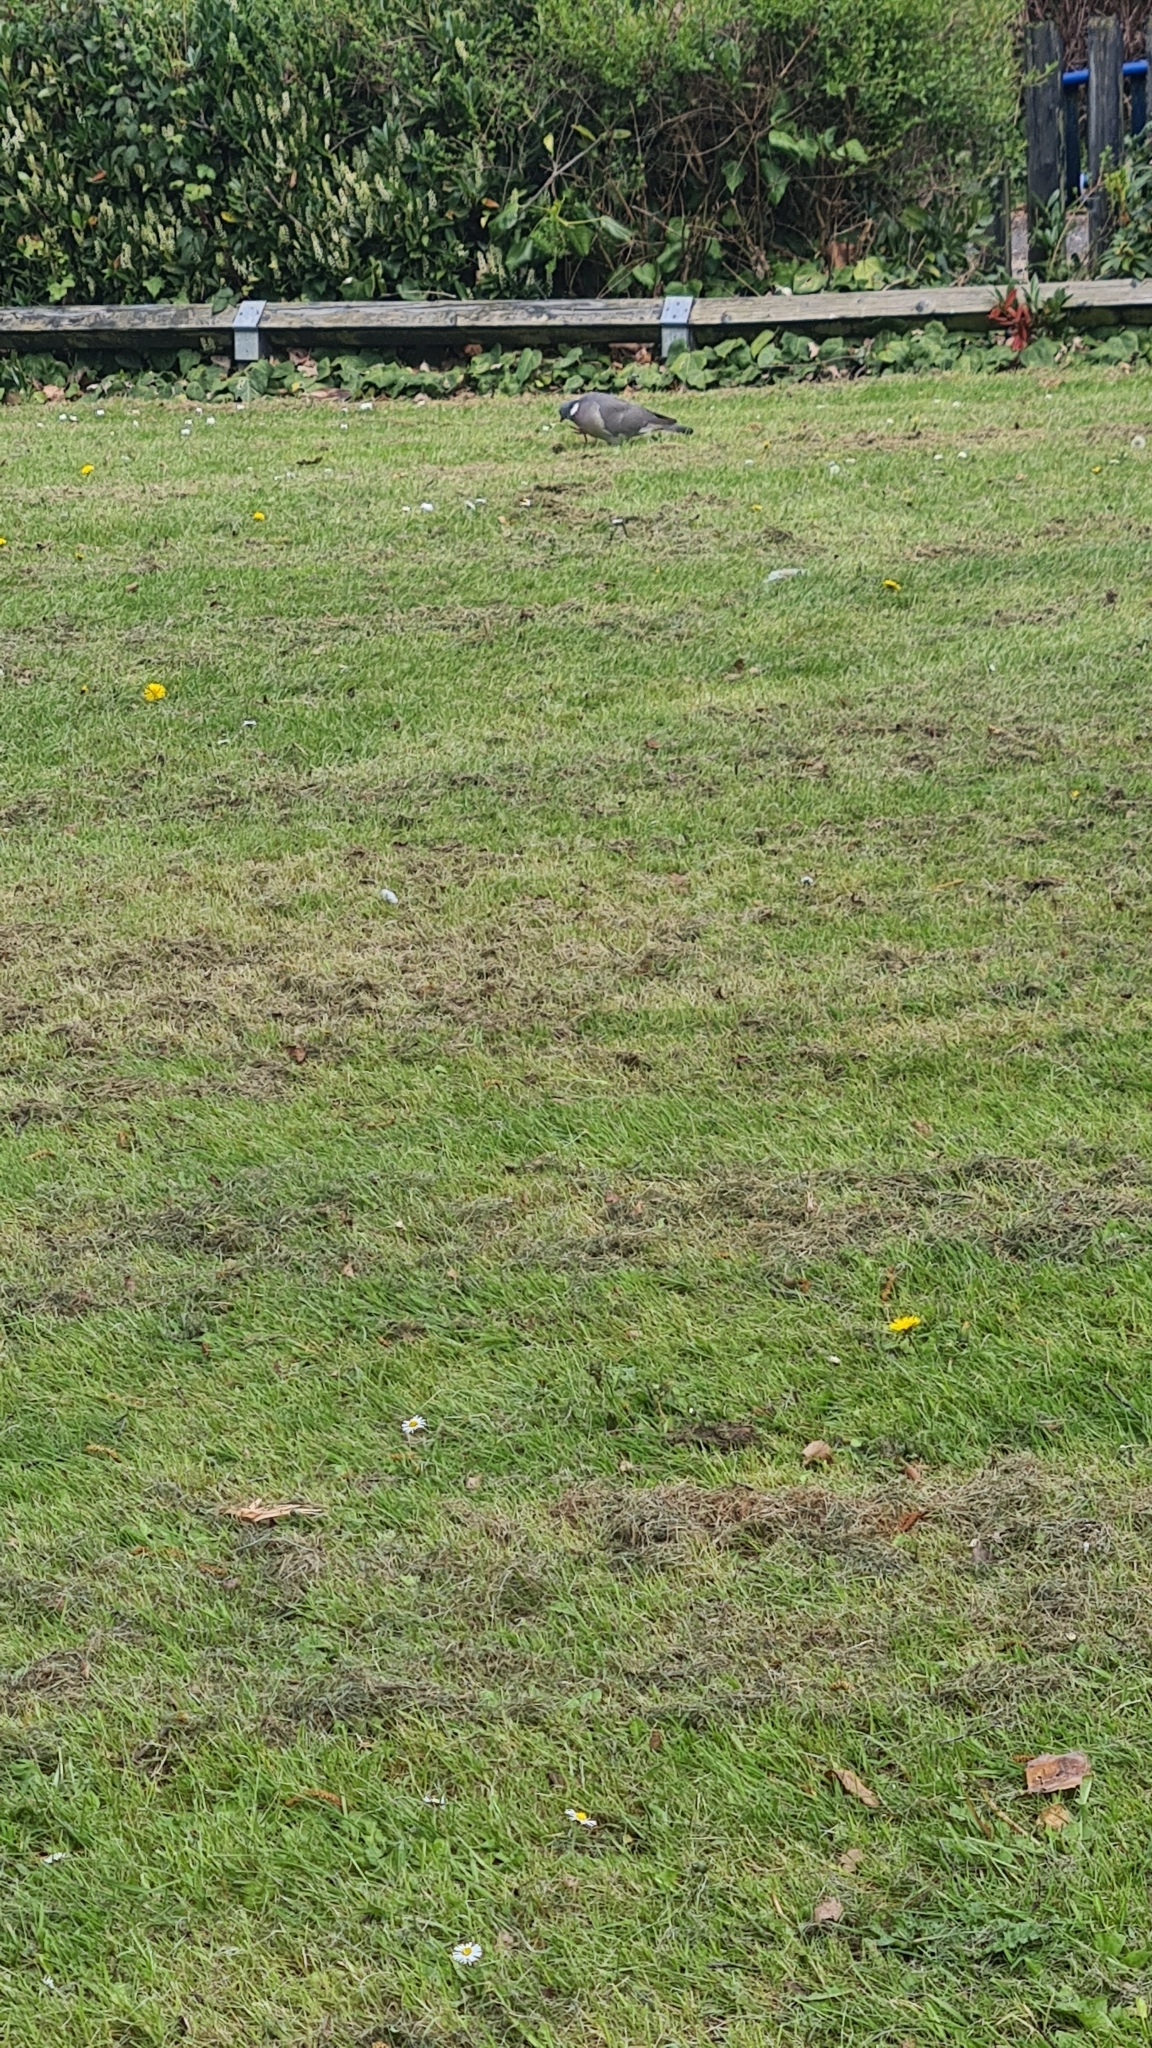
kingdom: Animalia
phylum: Chordata
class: Aves
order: Columbiformes
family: Columbidae
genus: Columba
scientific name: Columba palumbus
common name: Common wood pigeon
